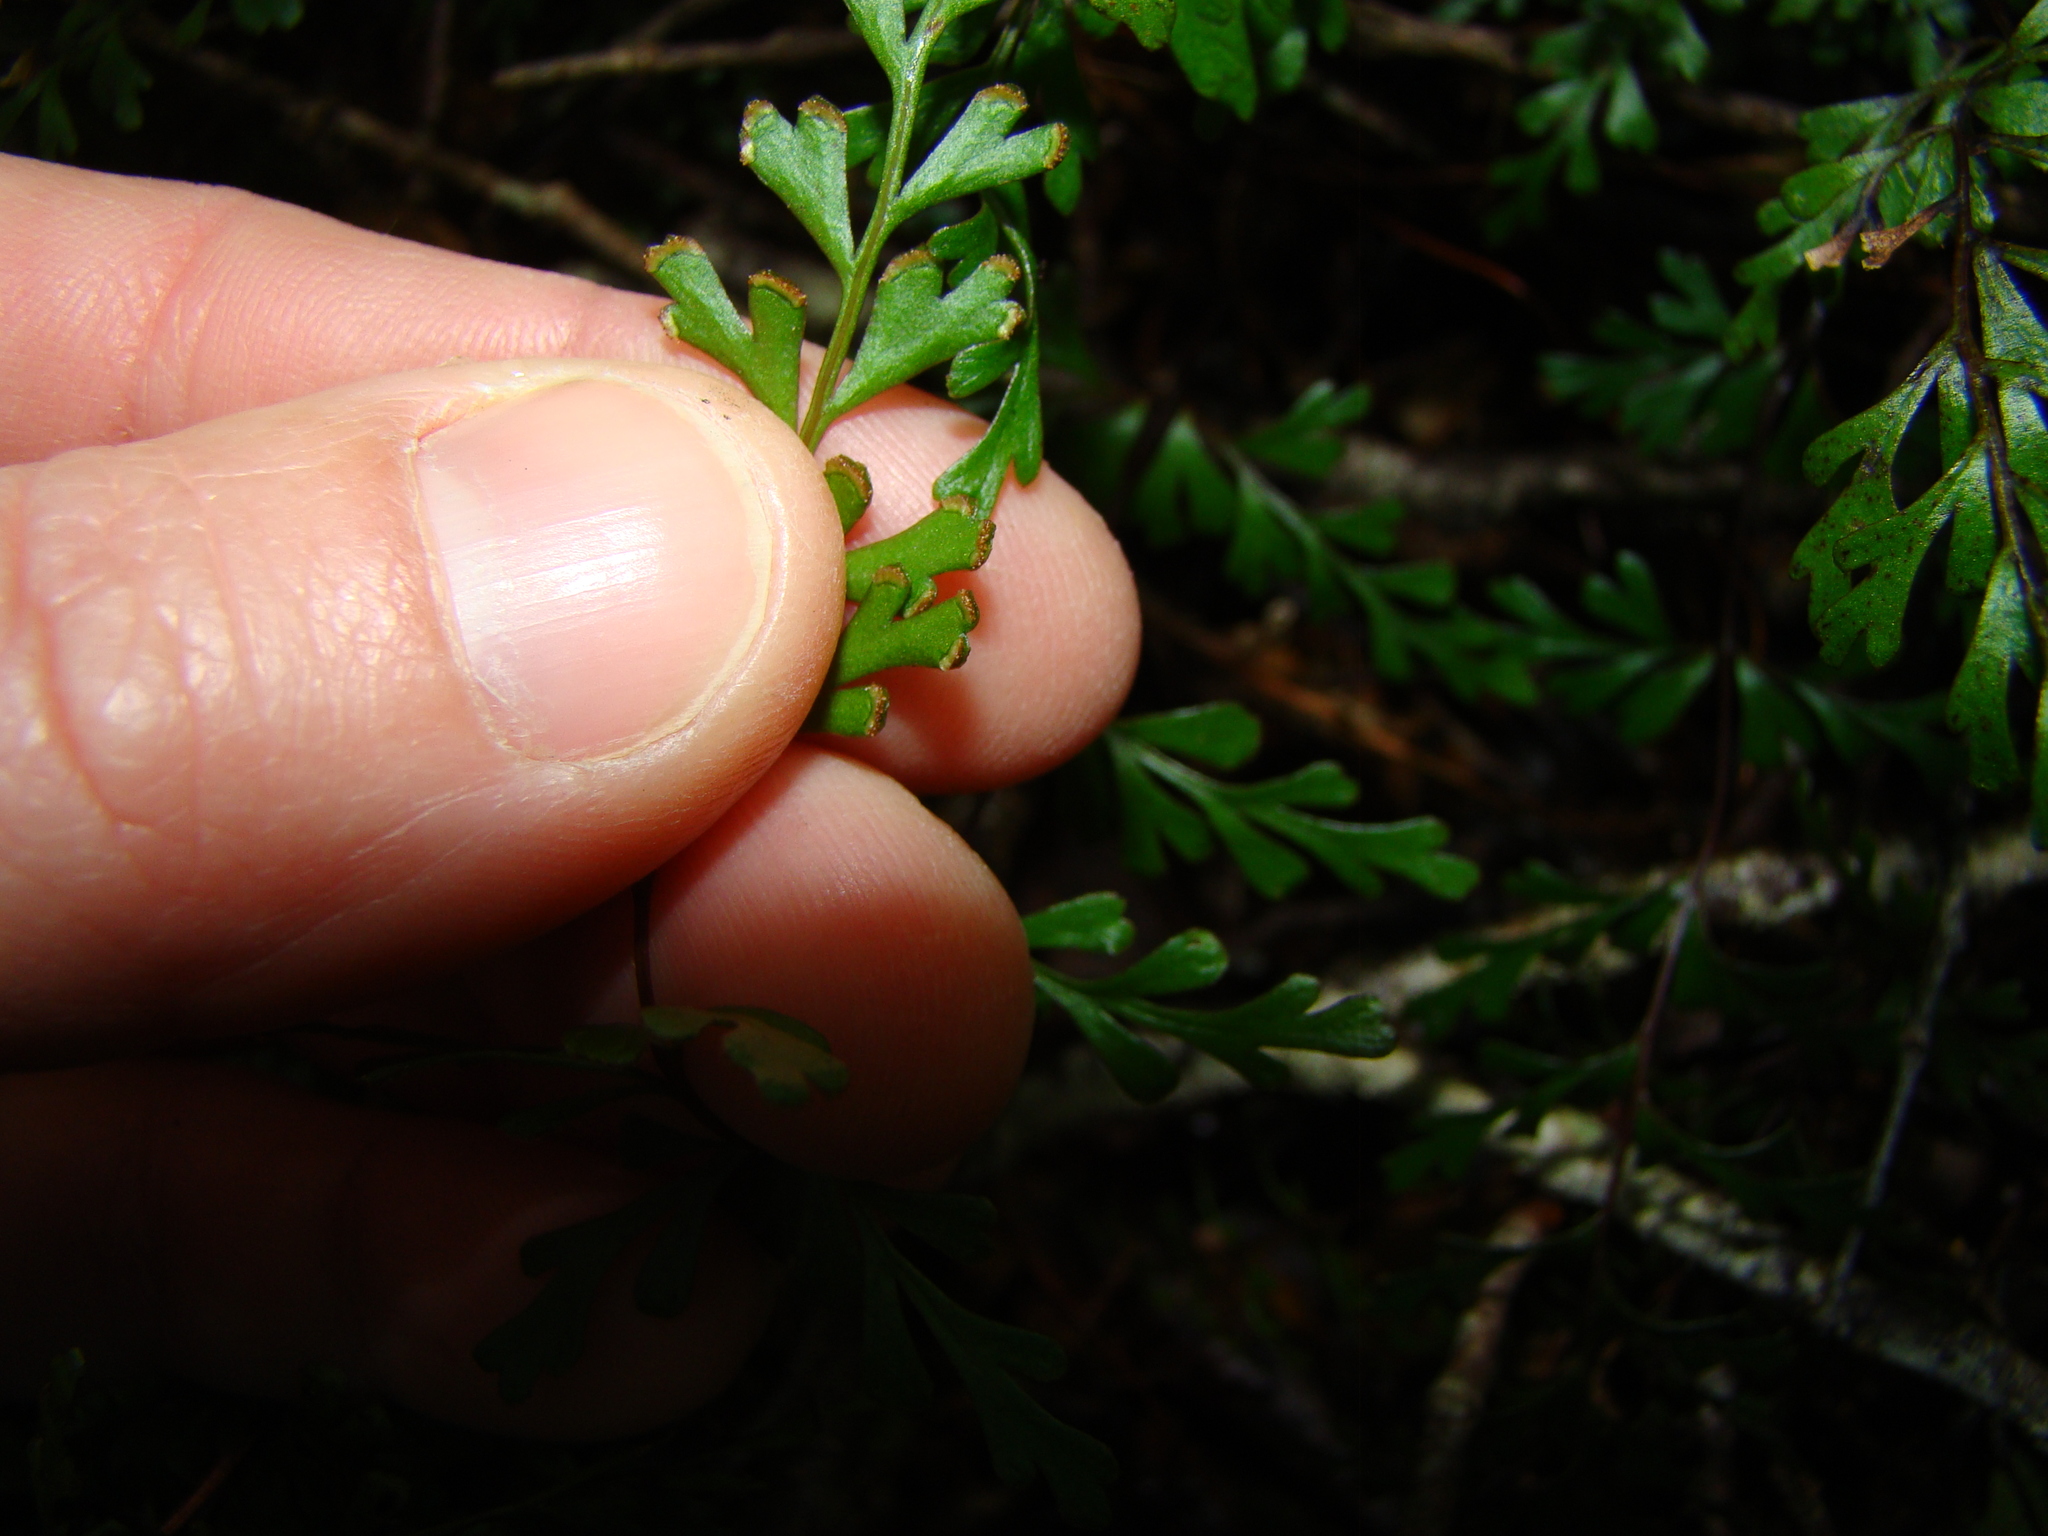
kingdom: Plantae
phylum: Tracheophyta
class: Polypodiopsida
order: Polypodiales
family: Lindsaeaceae
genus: Lindsaea
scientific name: Lindsaea trichomanoides
